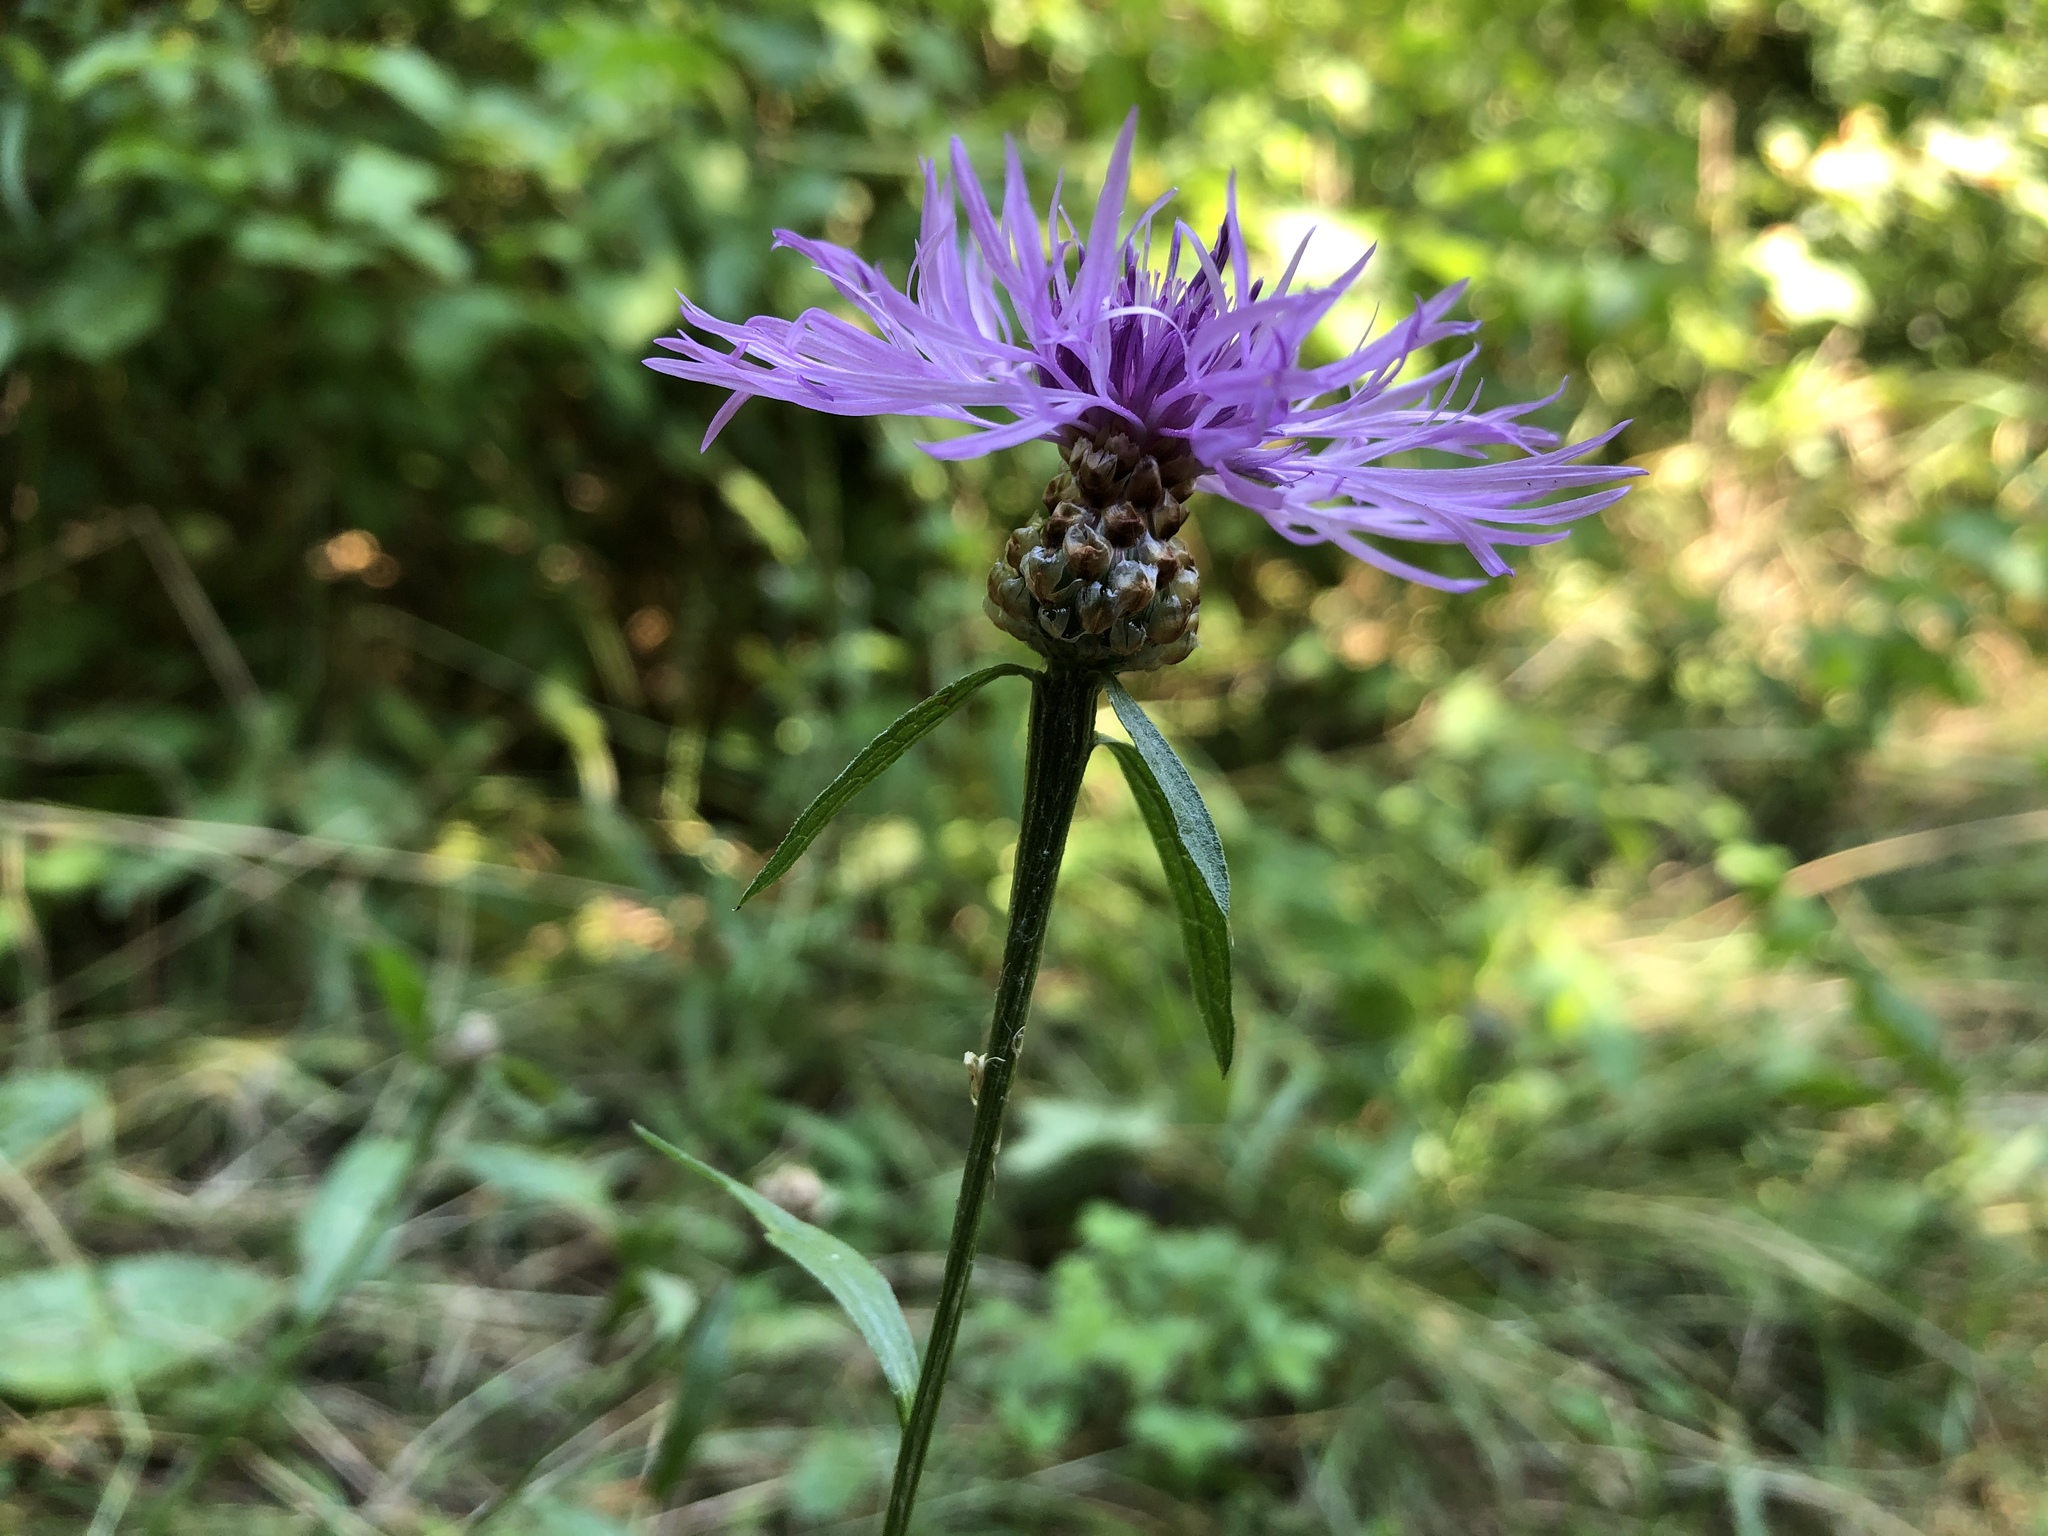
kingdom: Plantae
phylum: Tracheophyta
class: Magnoliopsida
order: Asterales
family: Asteraceae
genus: Centaurea
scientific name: Centaurea jacea
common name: Brown knapweed
